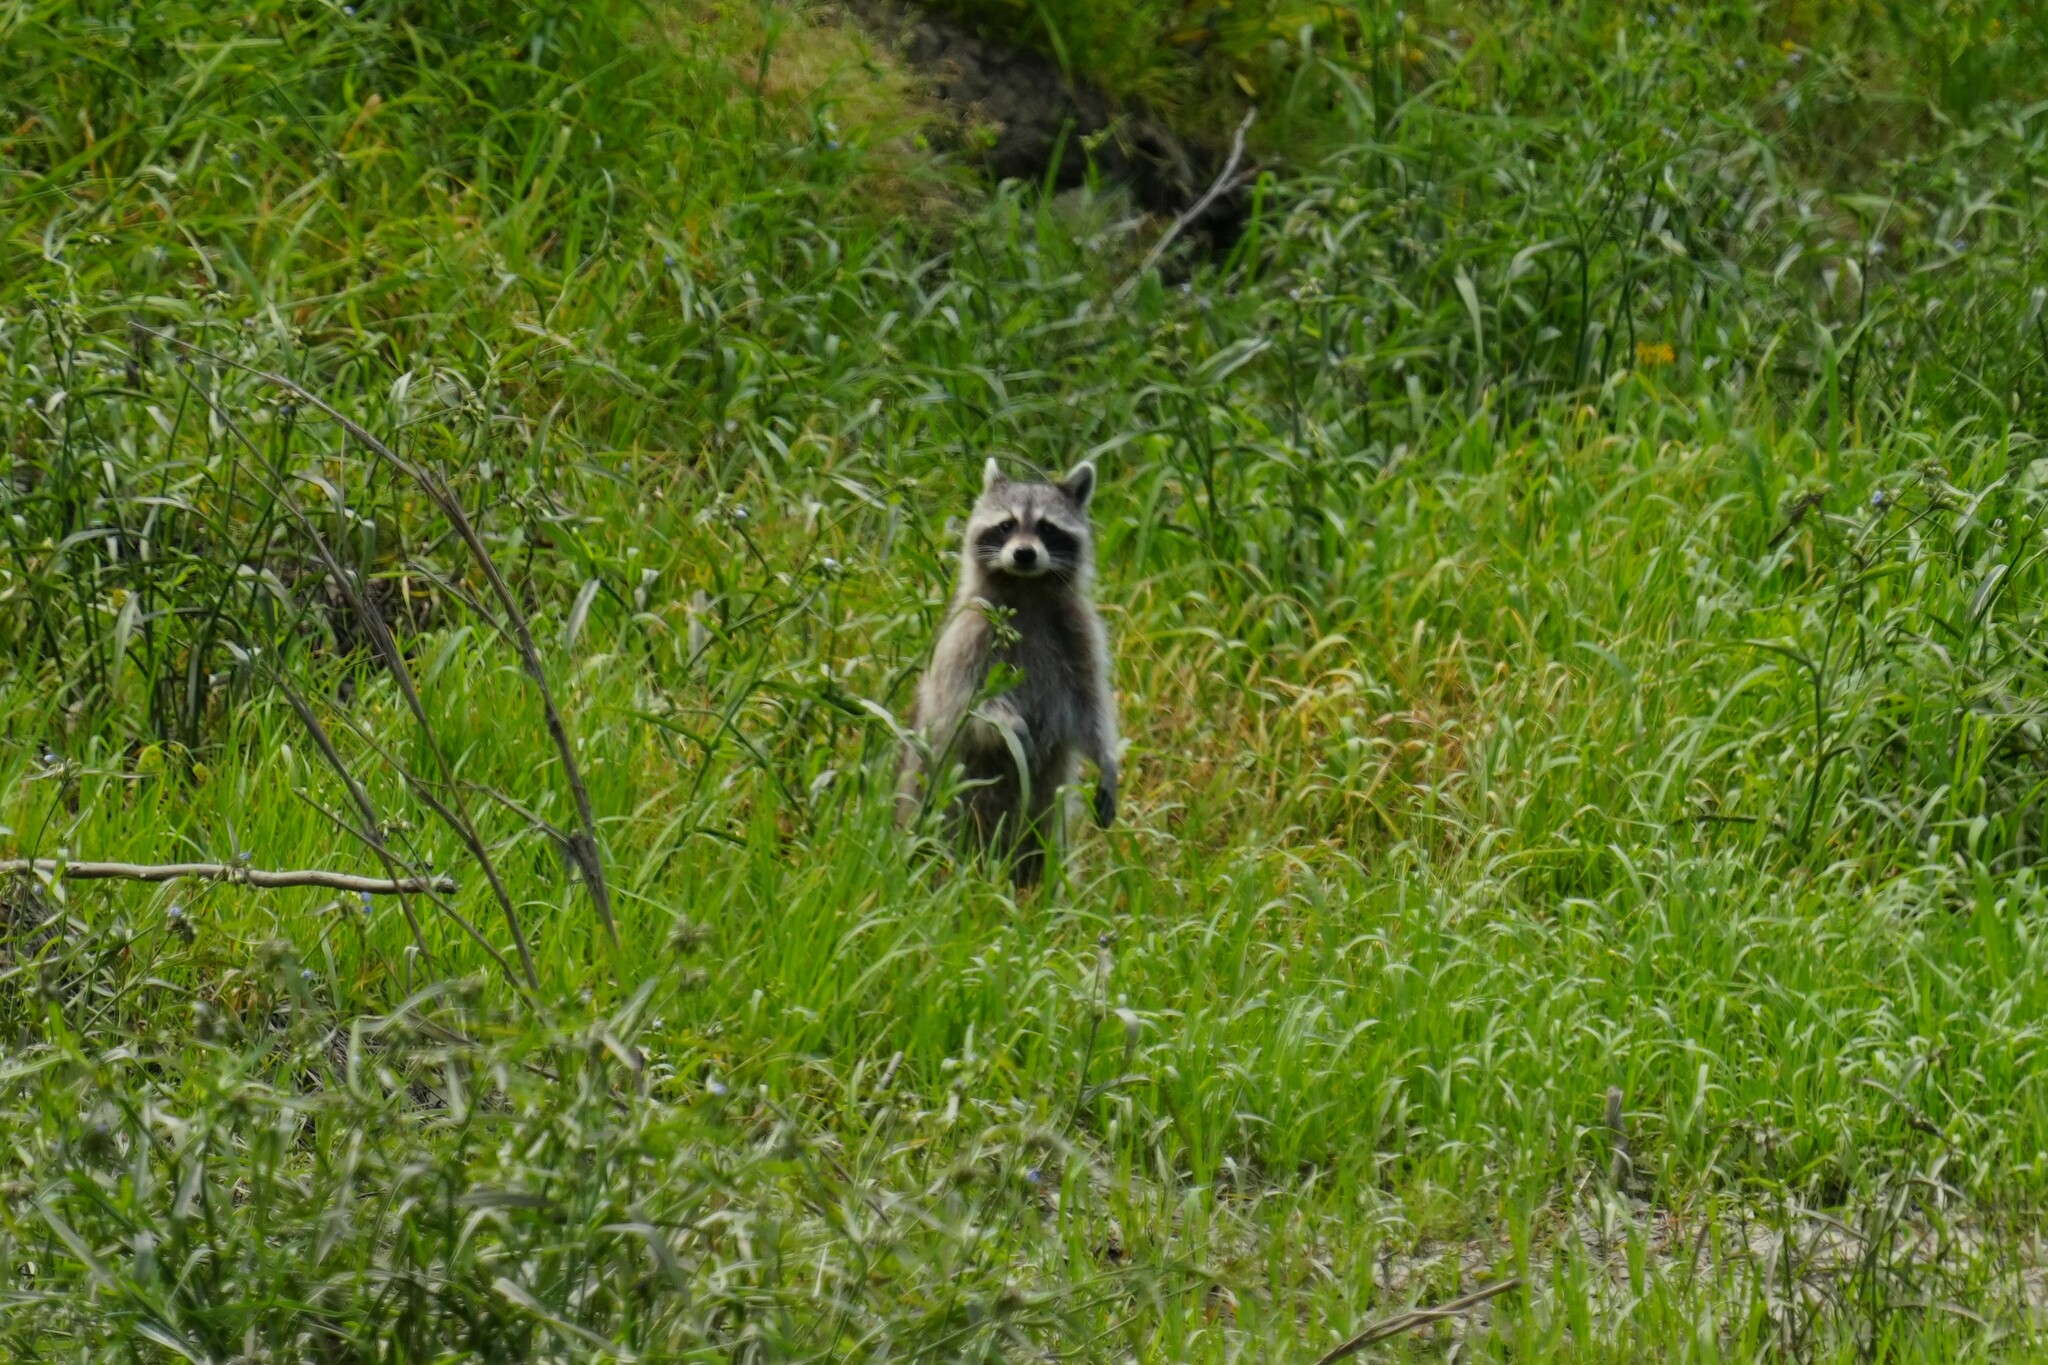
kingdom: Animalia
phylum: Chordata
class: Mammalia
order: Carnivora
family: Procyonidae
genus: Procyon
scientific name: Procyon lotor
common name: Raccoon
